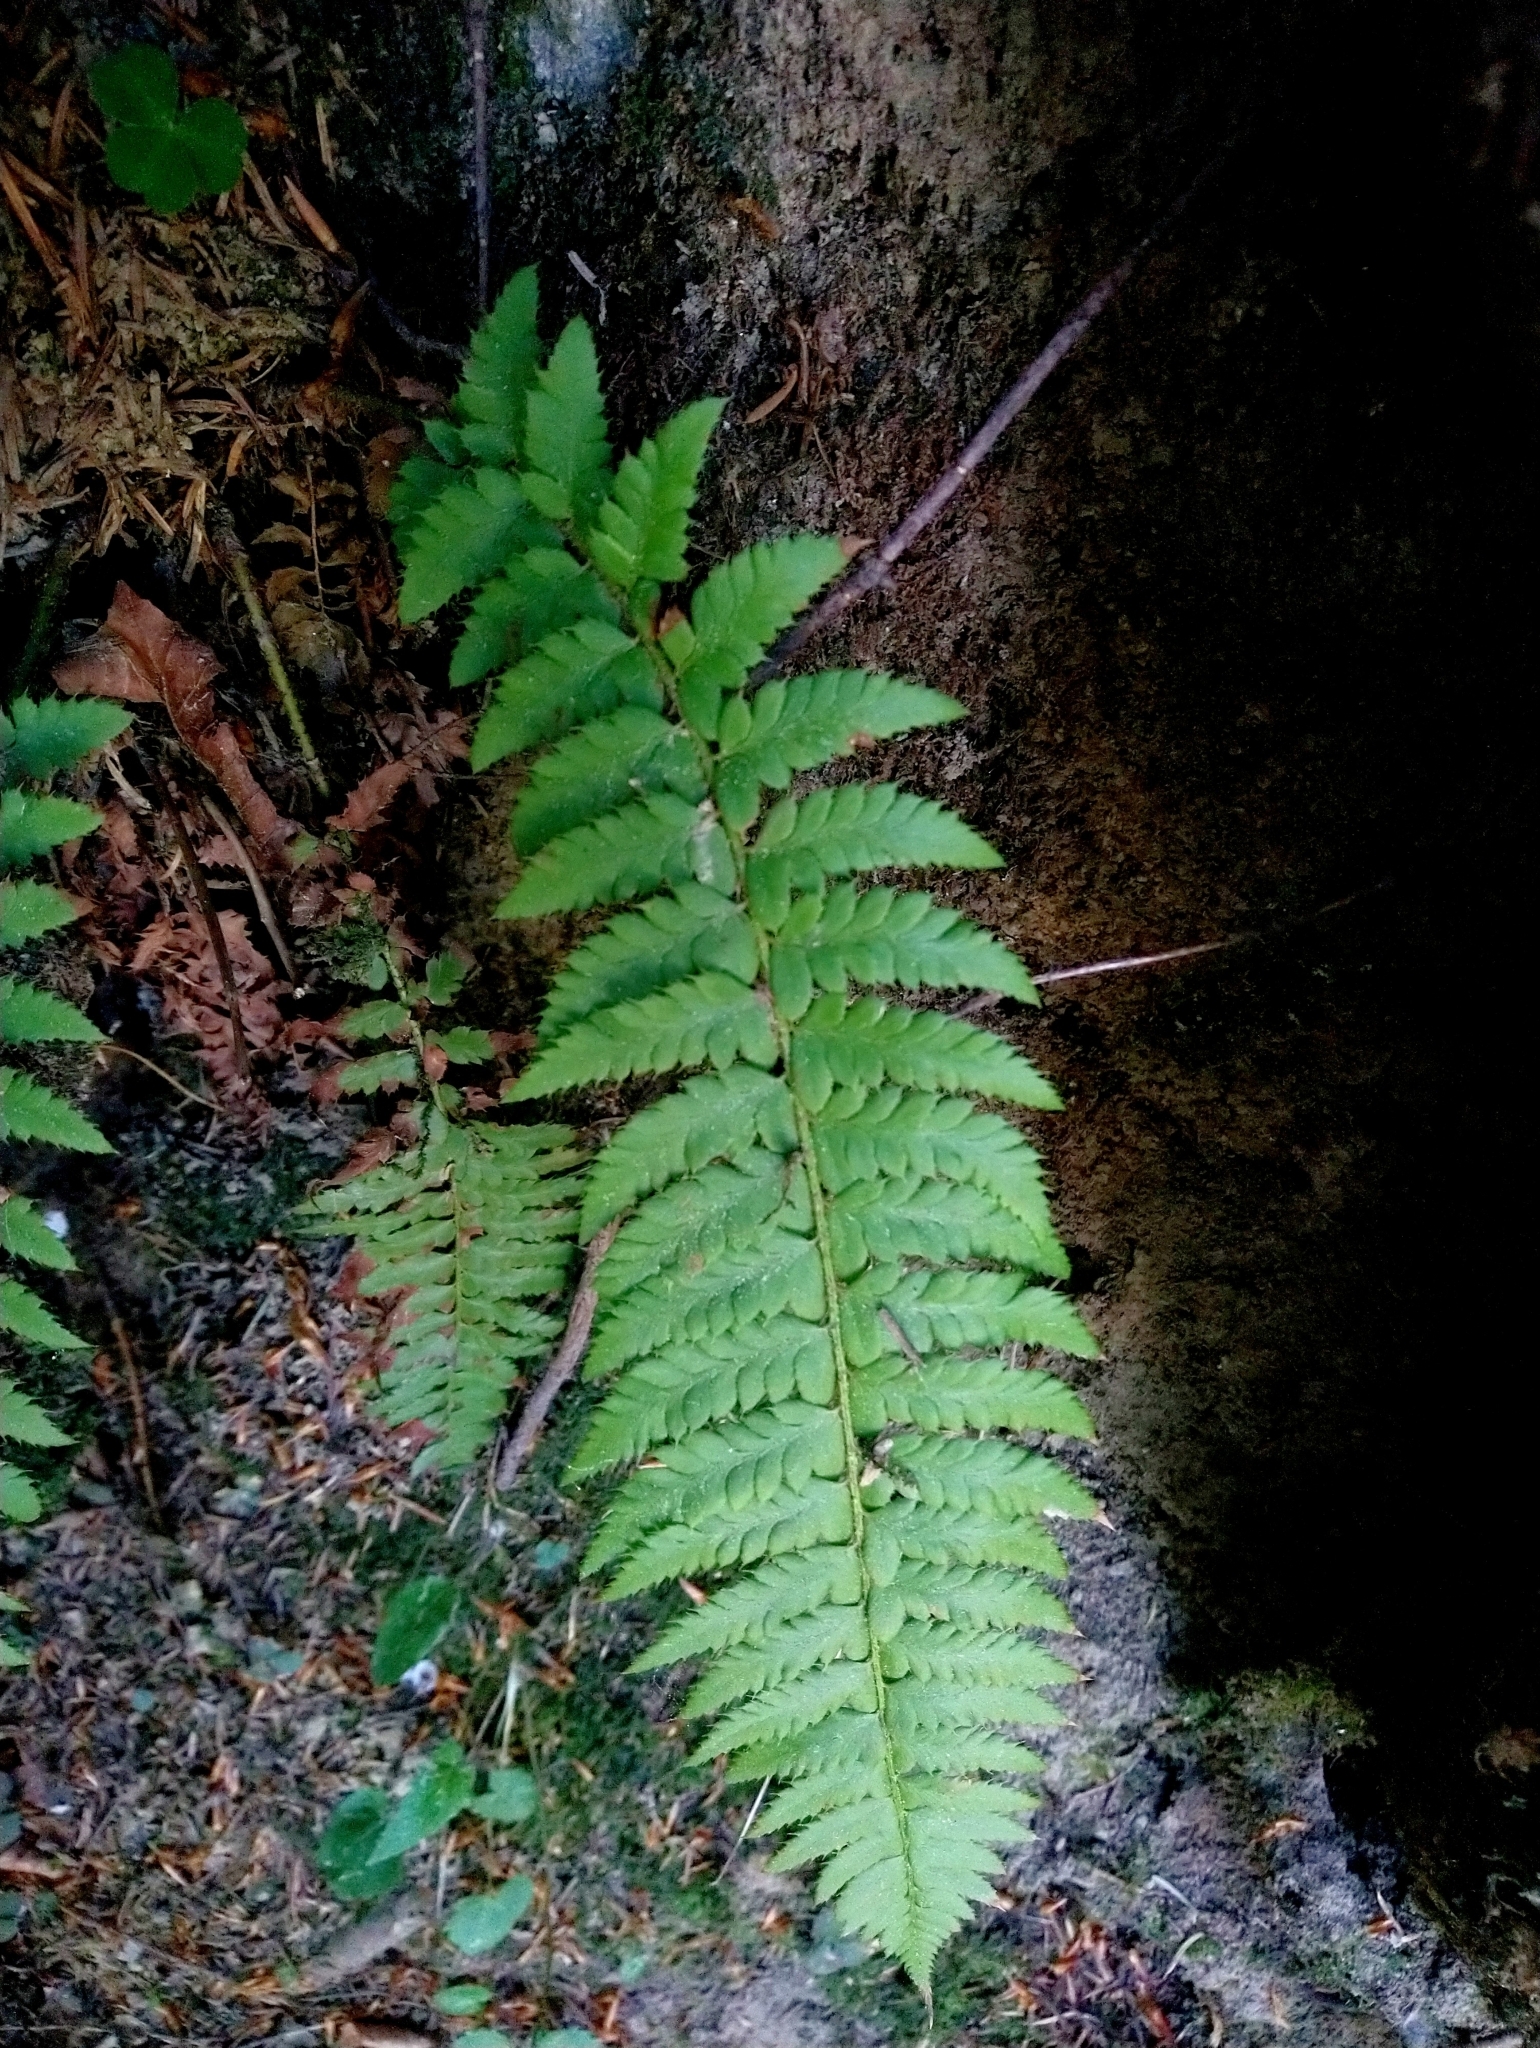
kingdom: Plantae
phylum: Tracheophyta
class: Polypodiopsida
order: Polypodiales
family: Dryopteridaceae
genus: Polystichum
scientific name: Polystichum aculeatum
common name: Hard shield-fern
